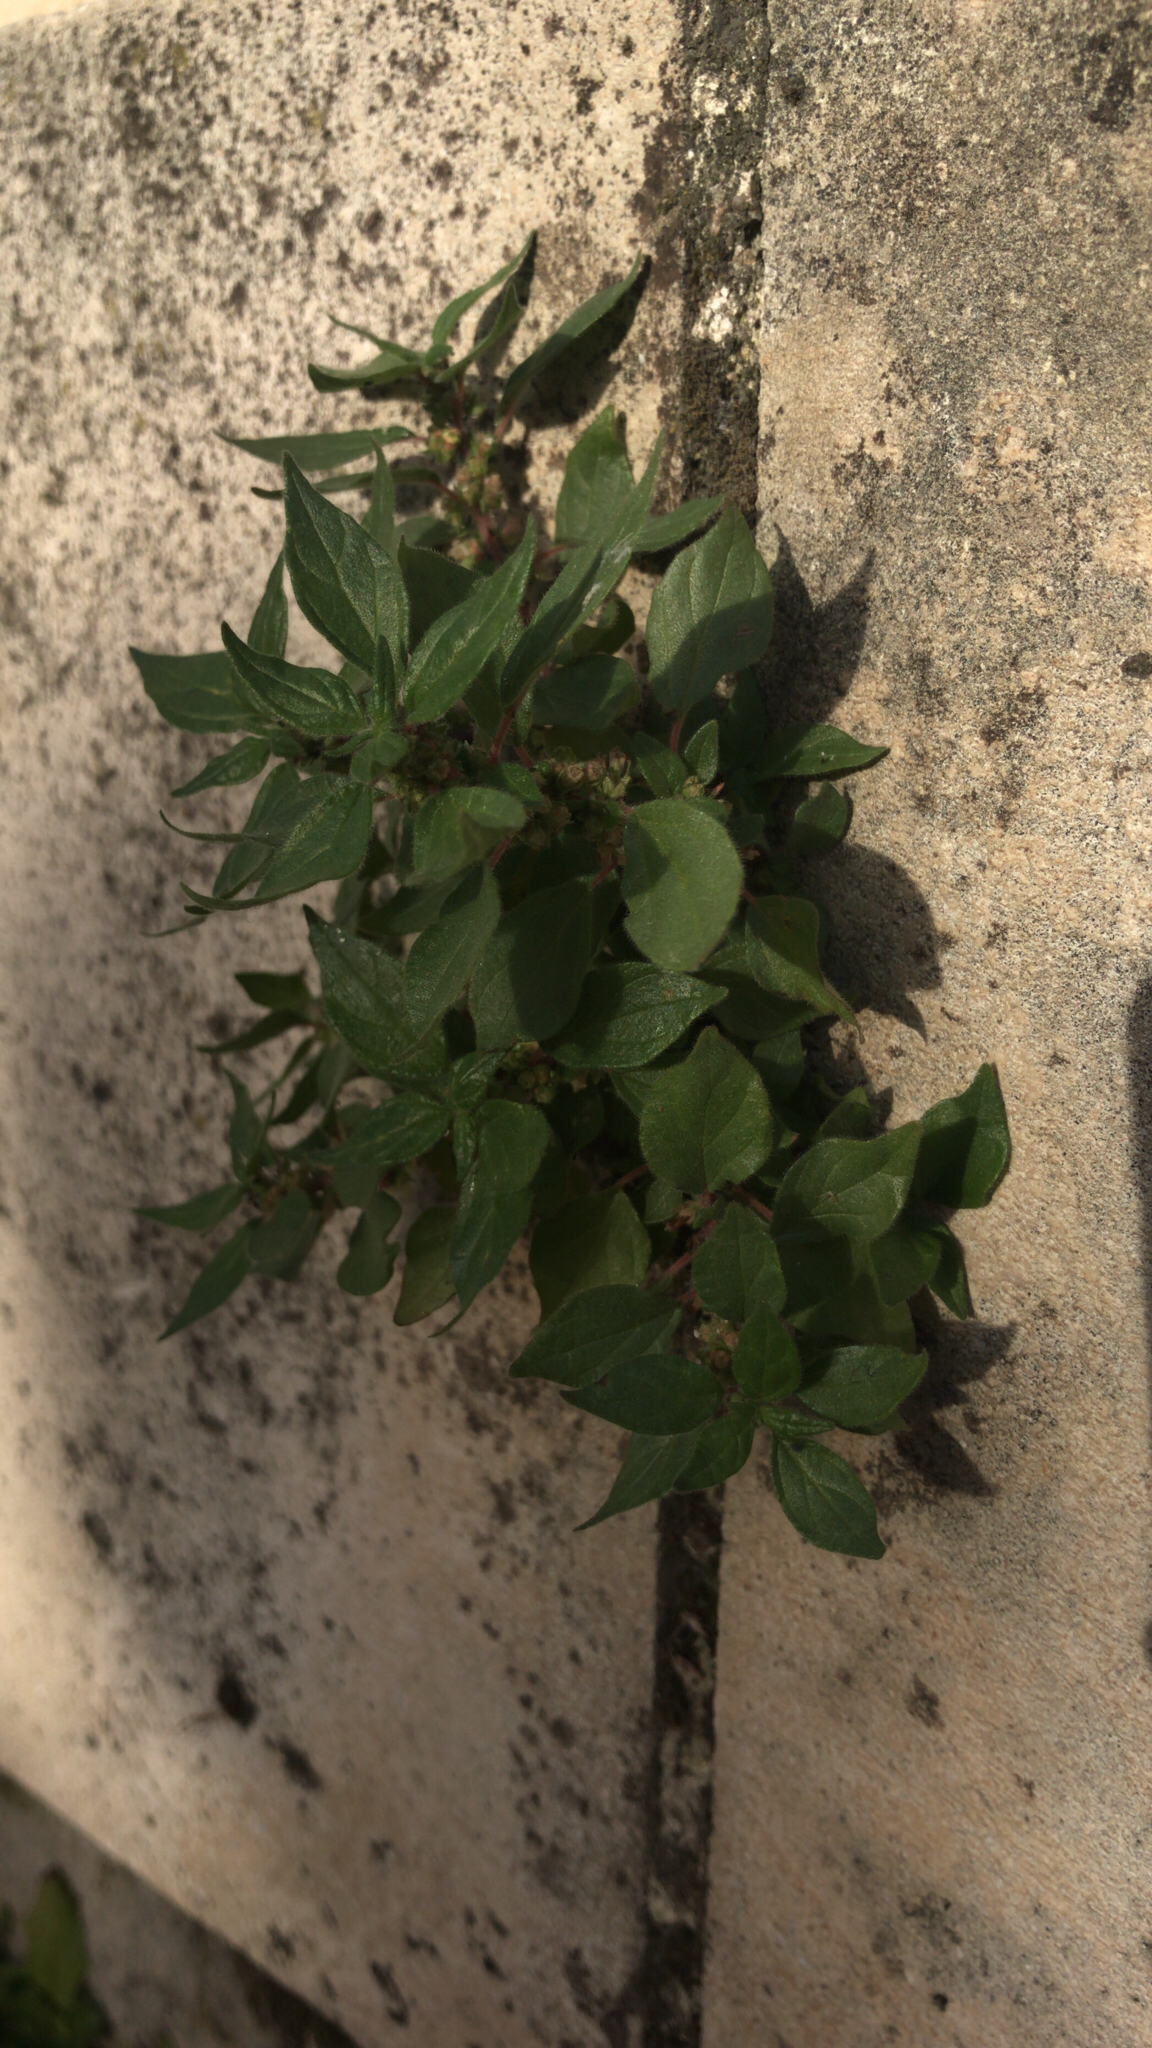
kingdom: Plantae
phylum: Tracheophyta
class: Magnoliopsida
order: Rosales
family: Urticaceae
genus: Parietaria
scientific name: Parietaria judaica
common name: Pellitory-of-the-wall
